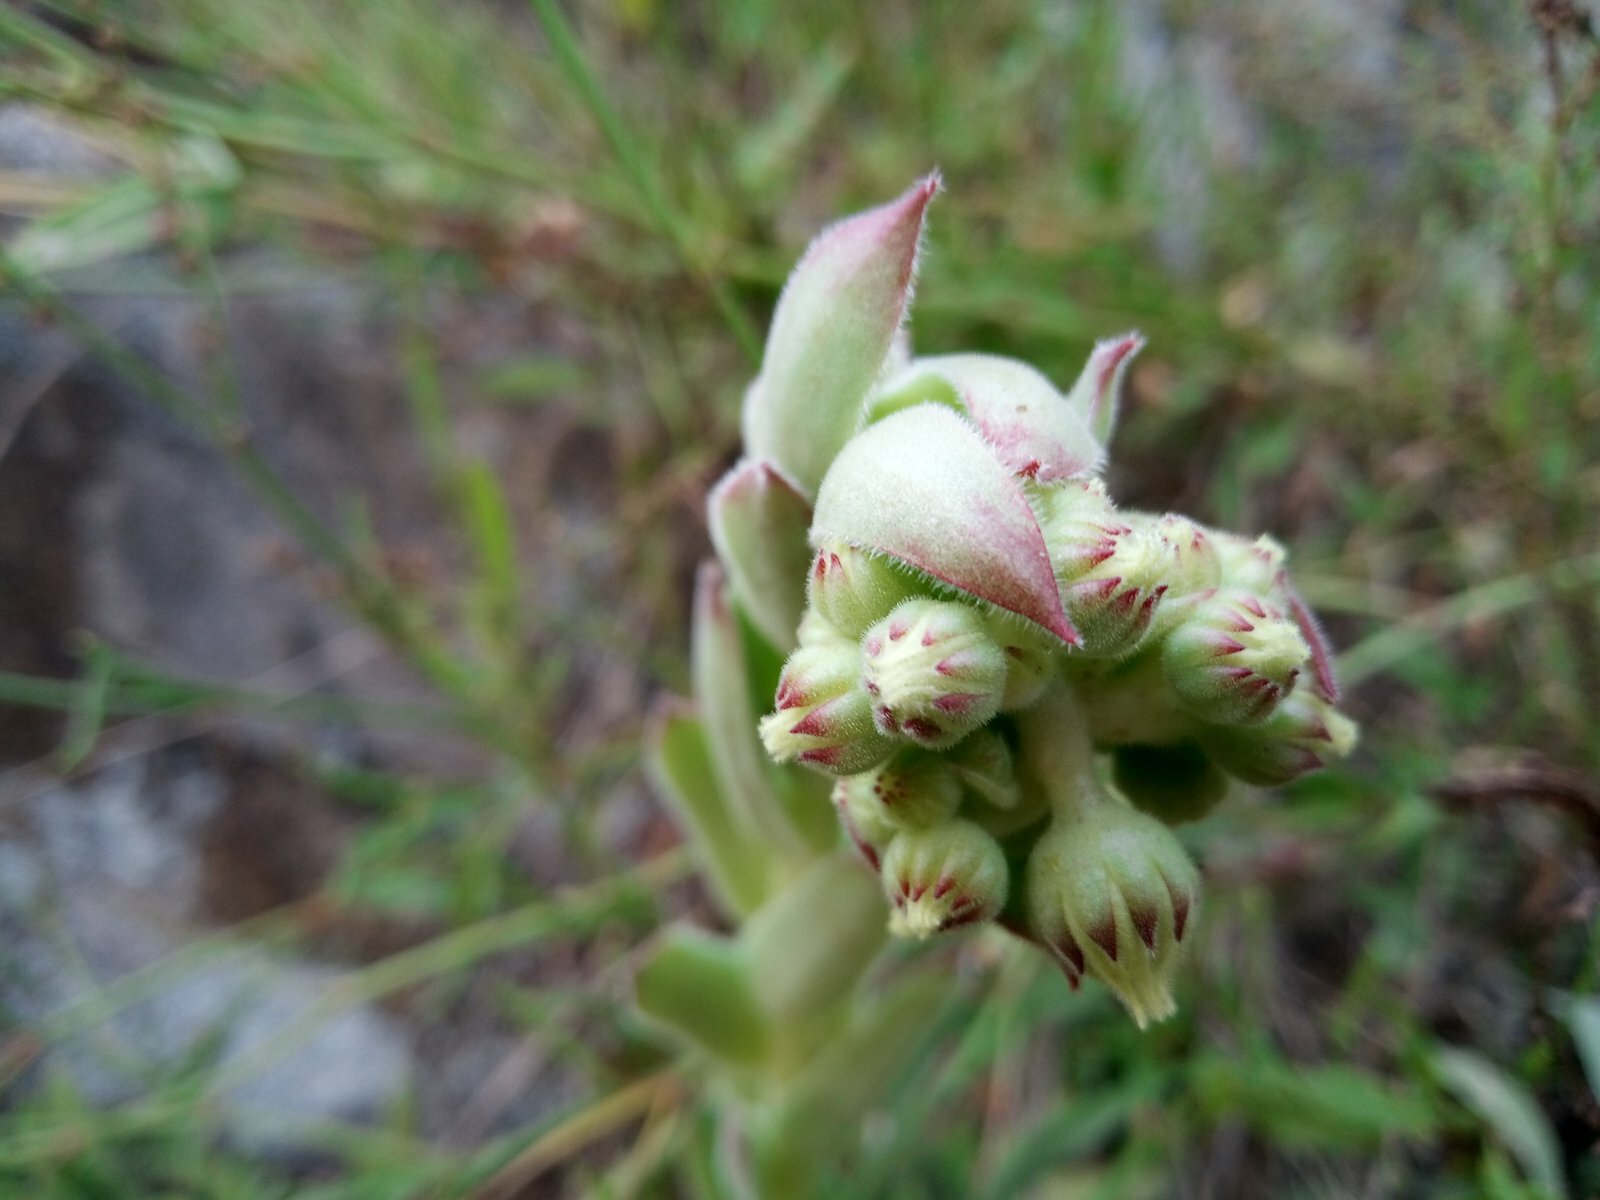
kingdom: Plantae
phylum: Tracheophyta
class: Magnoliopsida
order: Saxifragales
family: Crassulaceae
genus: Sempervivum
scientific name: Sempervivum ruthenicum
